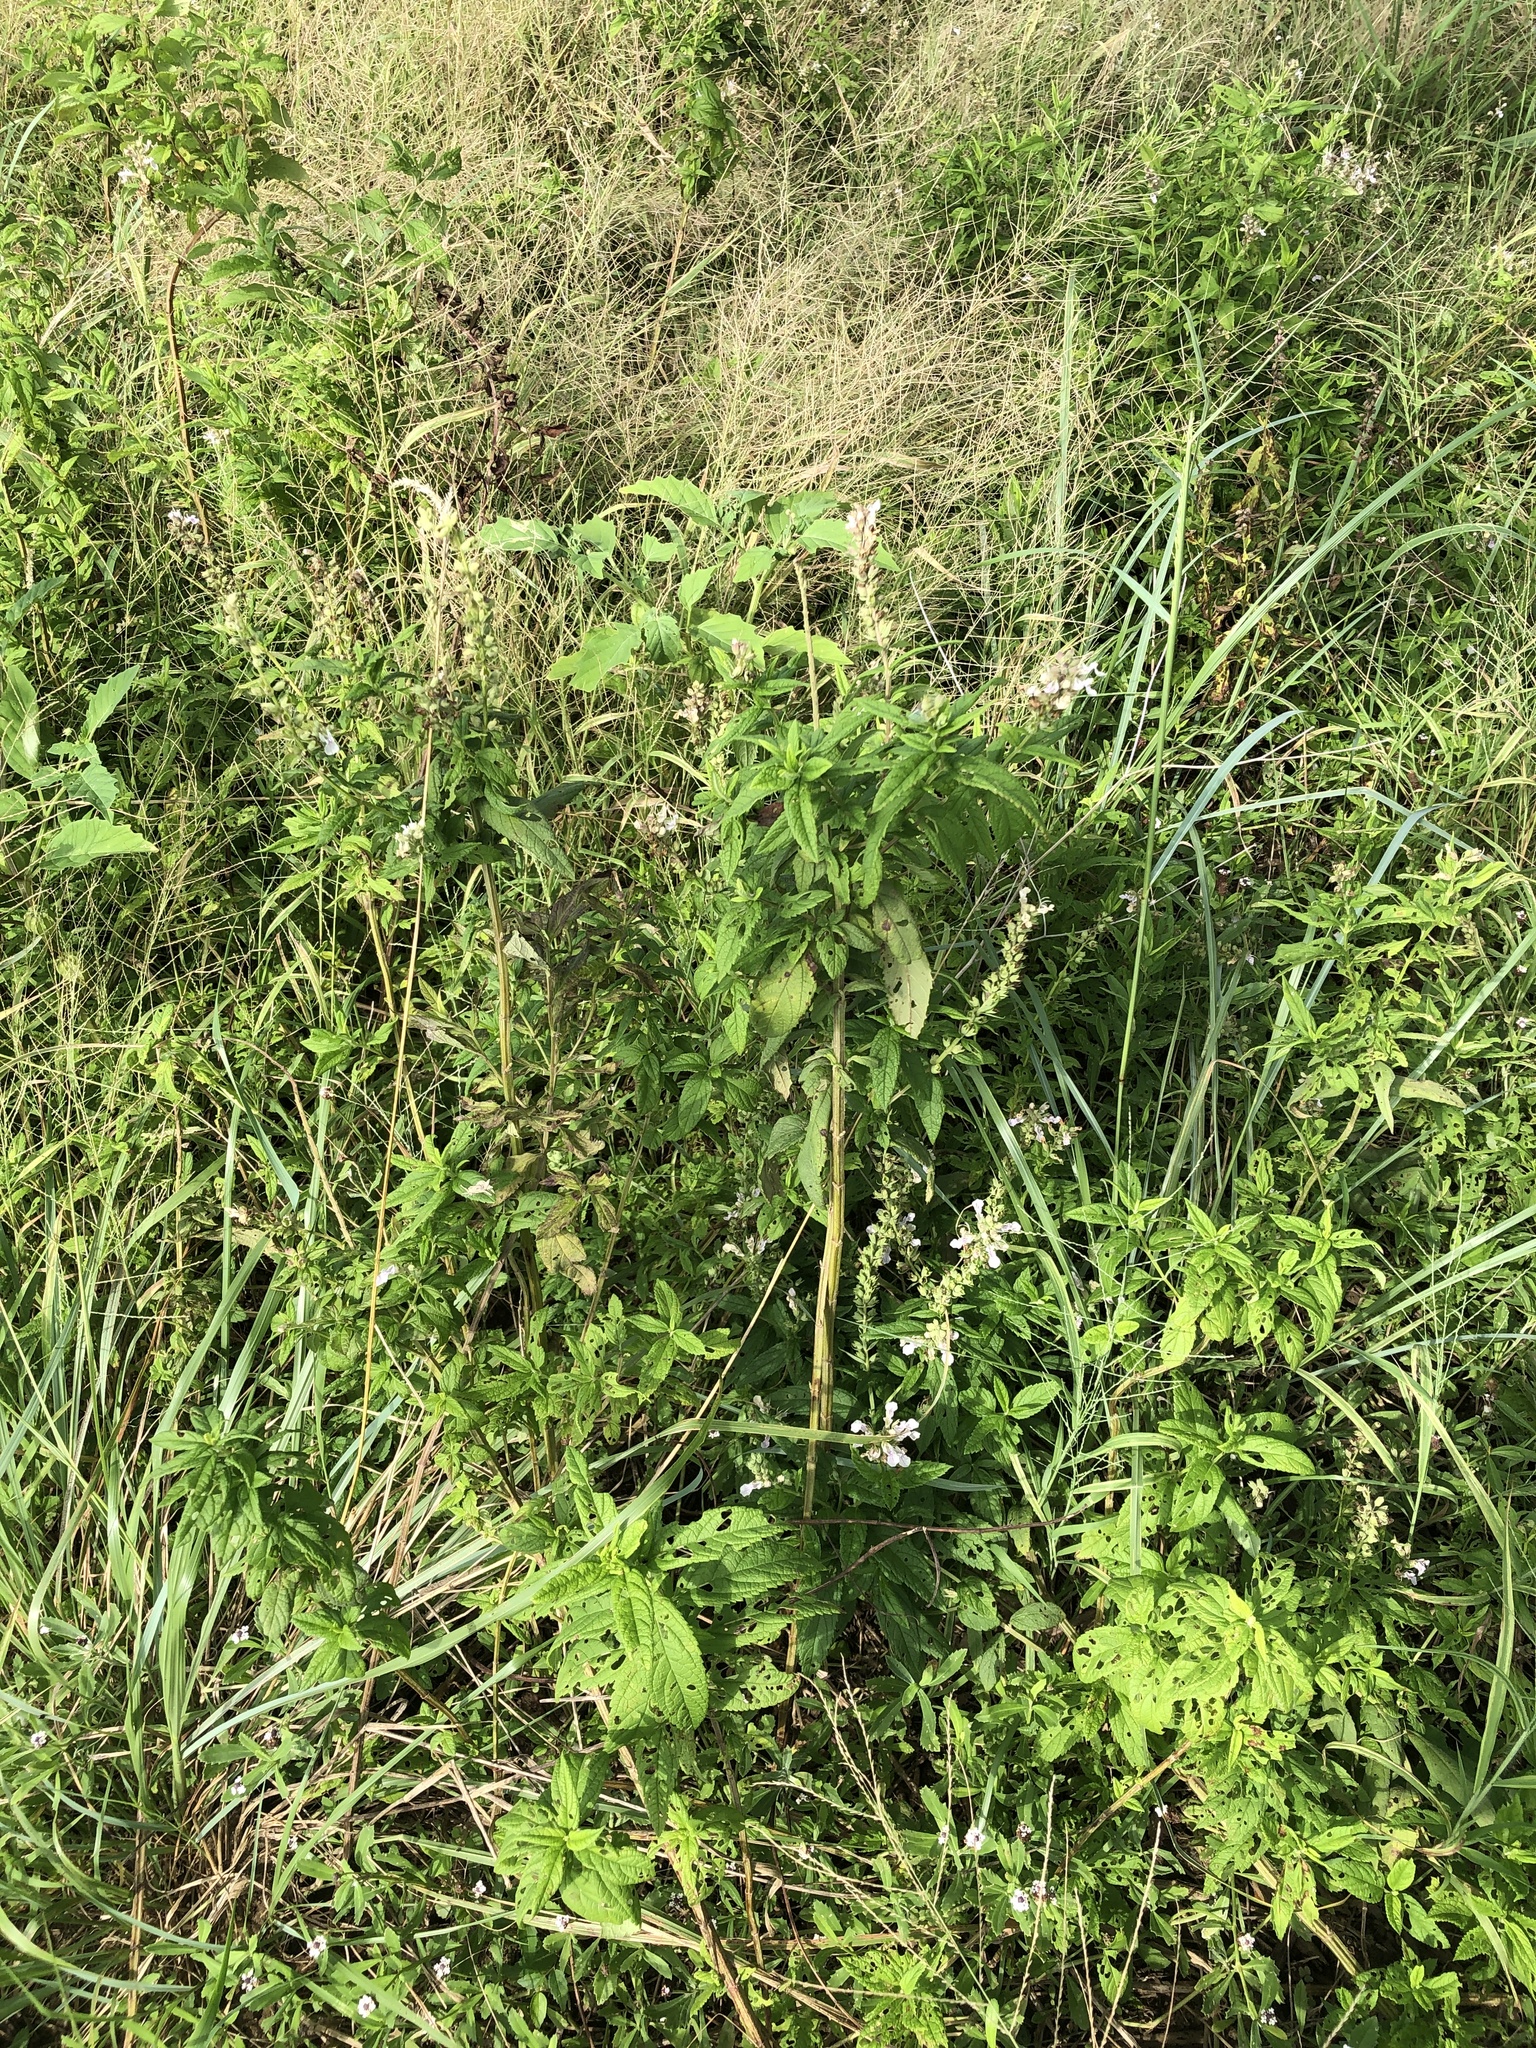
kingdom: Plantae
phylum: Tracheophyta
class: Magnoliopsida
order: Lamiales
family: Lamiaceae
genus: Teucrium
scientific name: Teucrium canadense
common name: American germander
